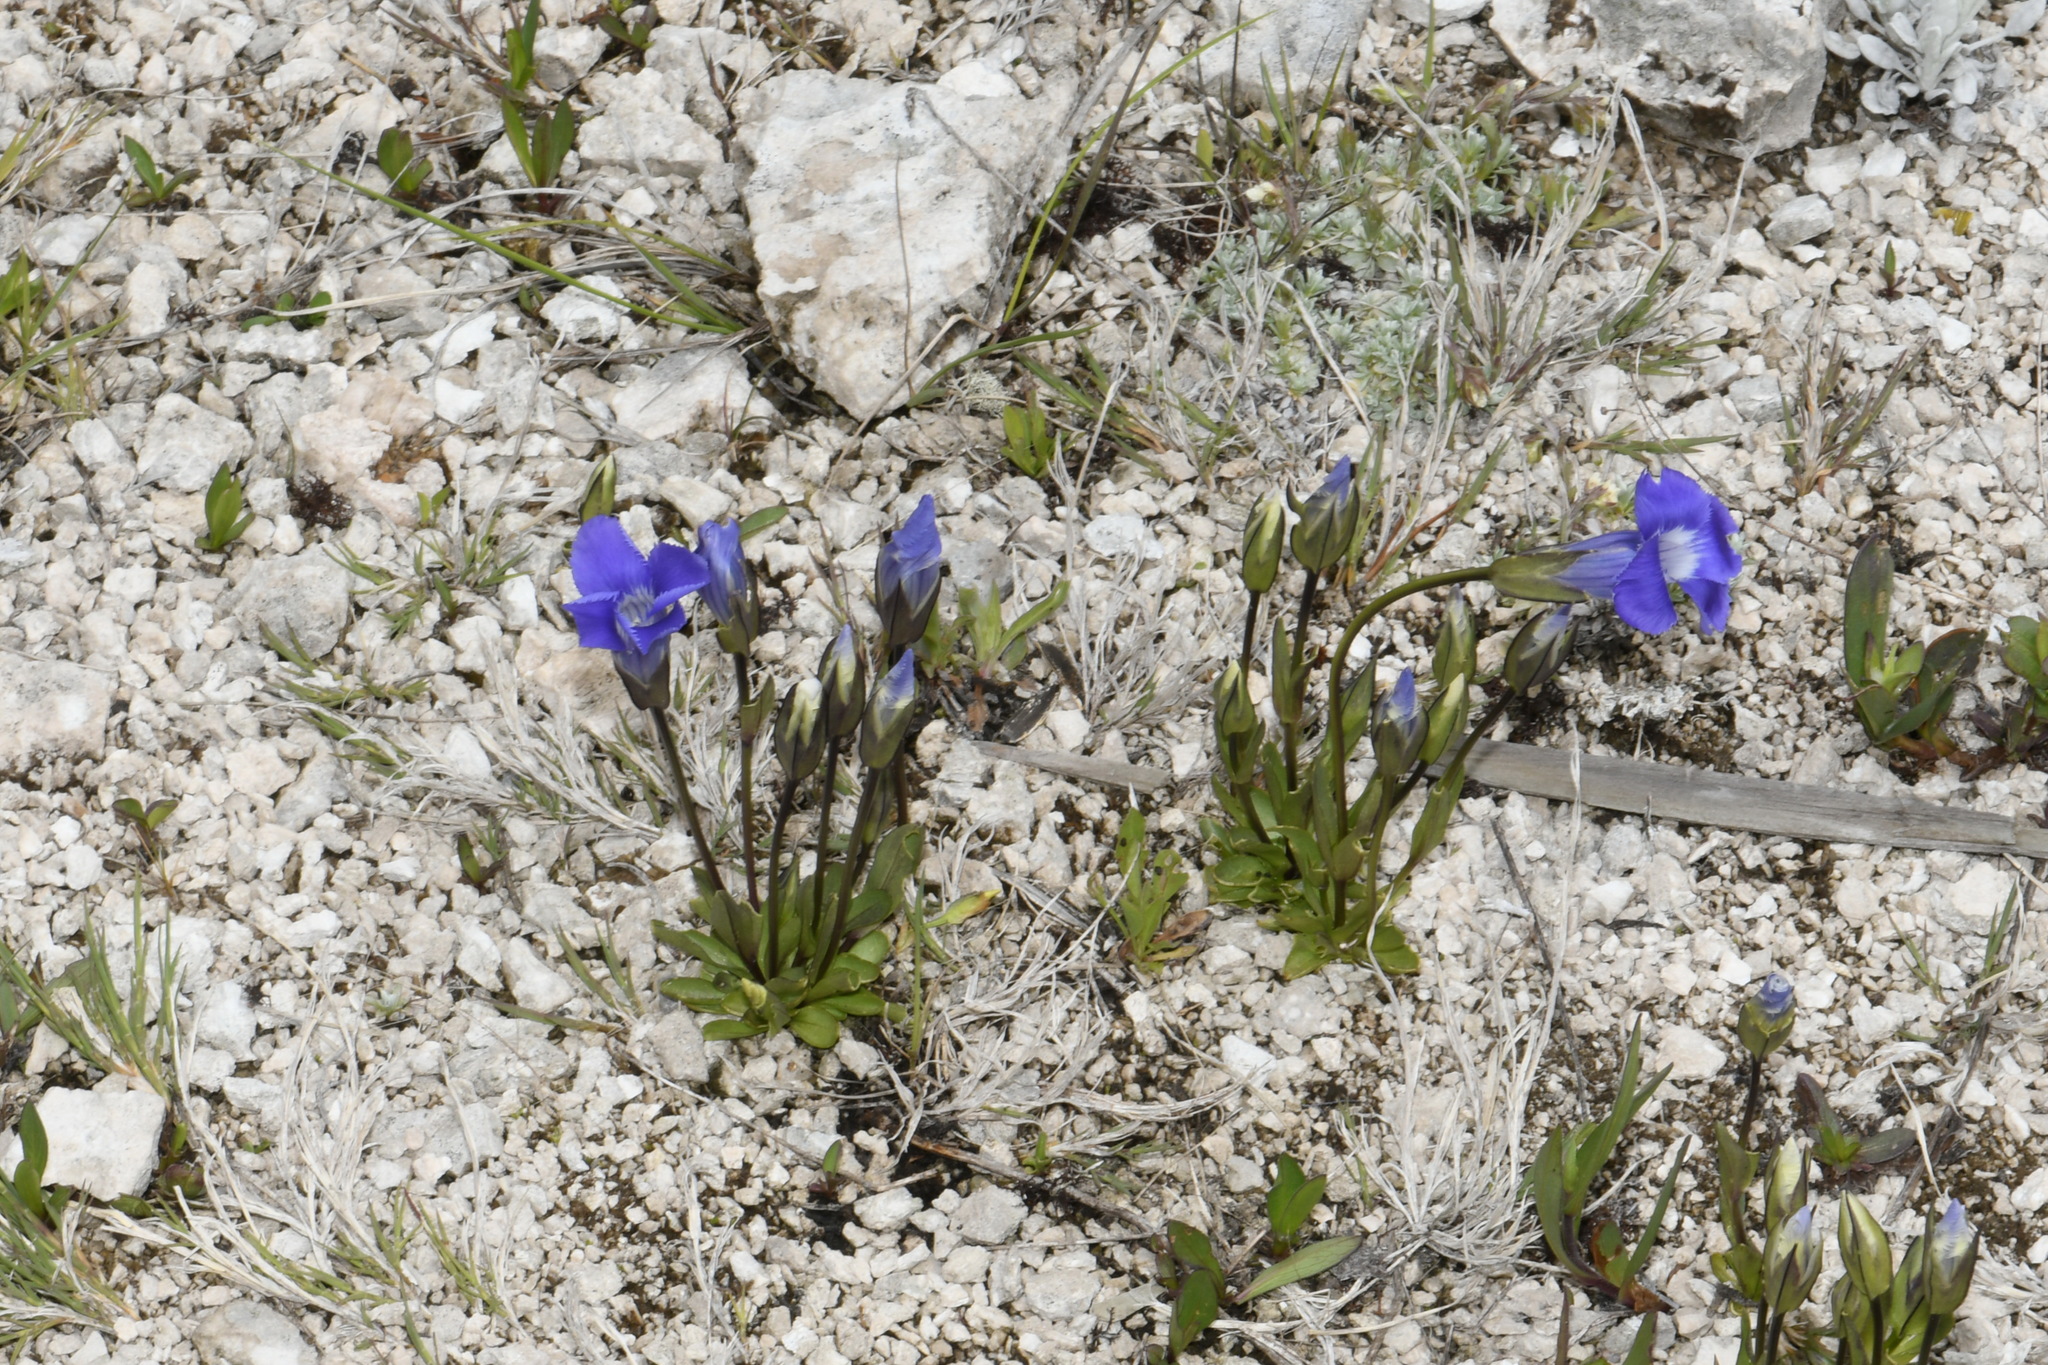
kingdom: Plantae
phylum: Tracheophyta
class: Magnoliopsida
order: Gentianales
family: Gentianaceae
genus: Gentianopsis
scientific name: Gentianopsis thermalis
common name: Rocky mountain fringed-gentian
